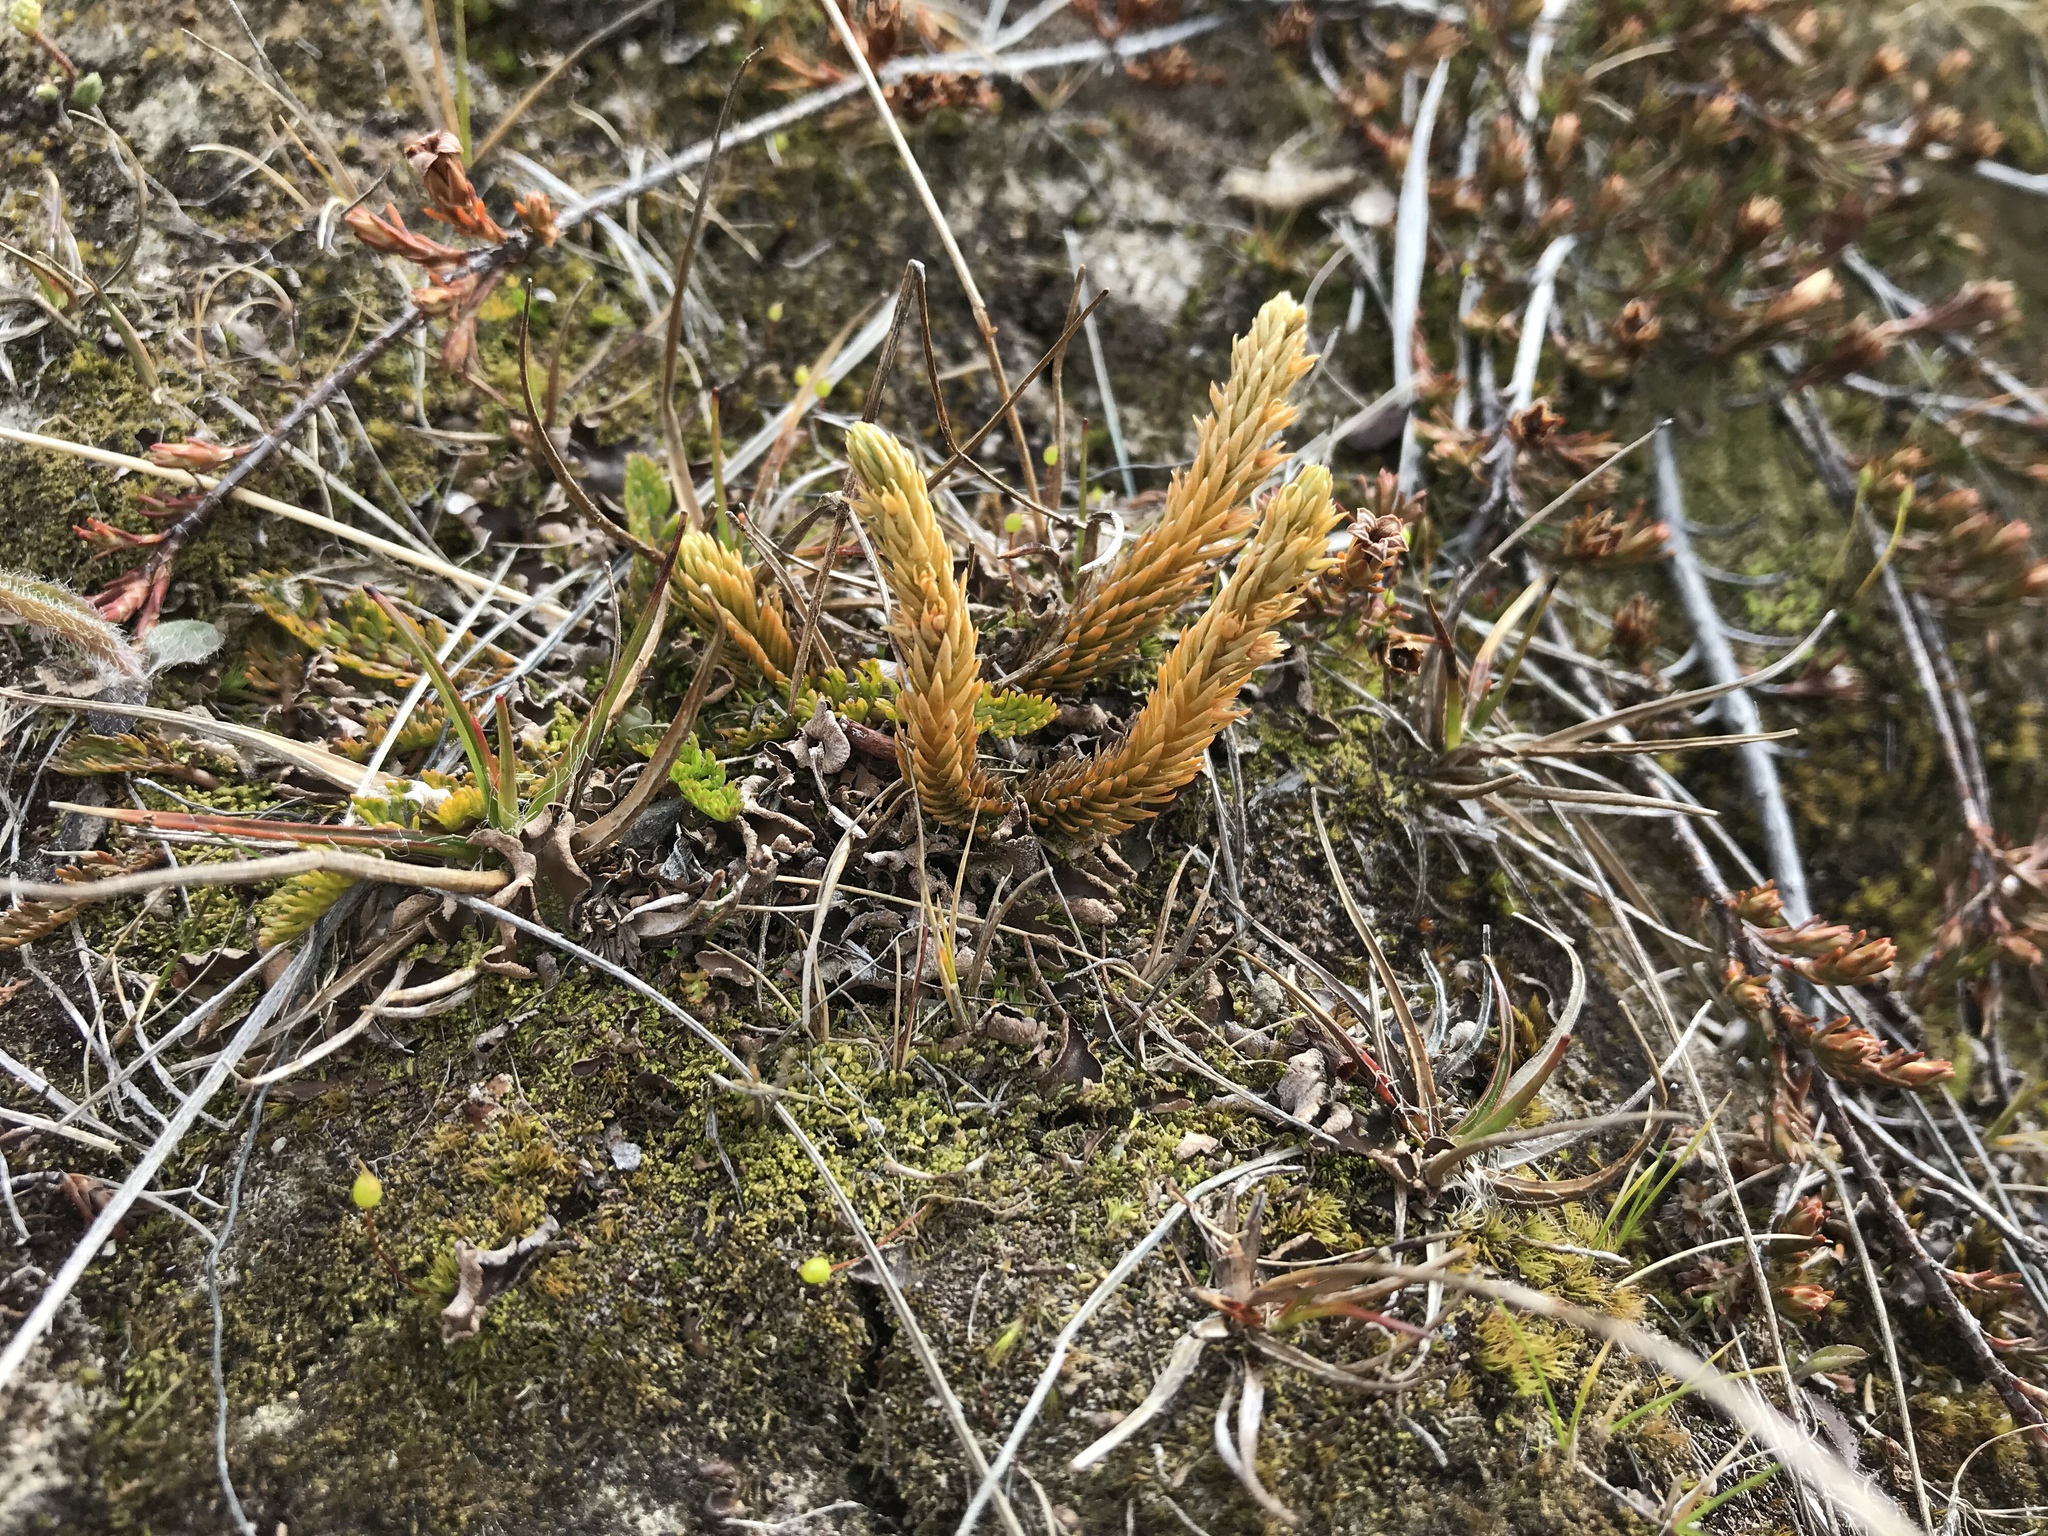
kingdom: Plantae
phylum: Tracheophyta
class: Lycopodiopsida
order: Lycopodiales
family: Lycopodiaceae
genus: Huperzia
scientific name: Huperzia australiana
